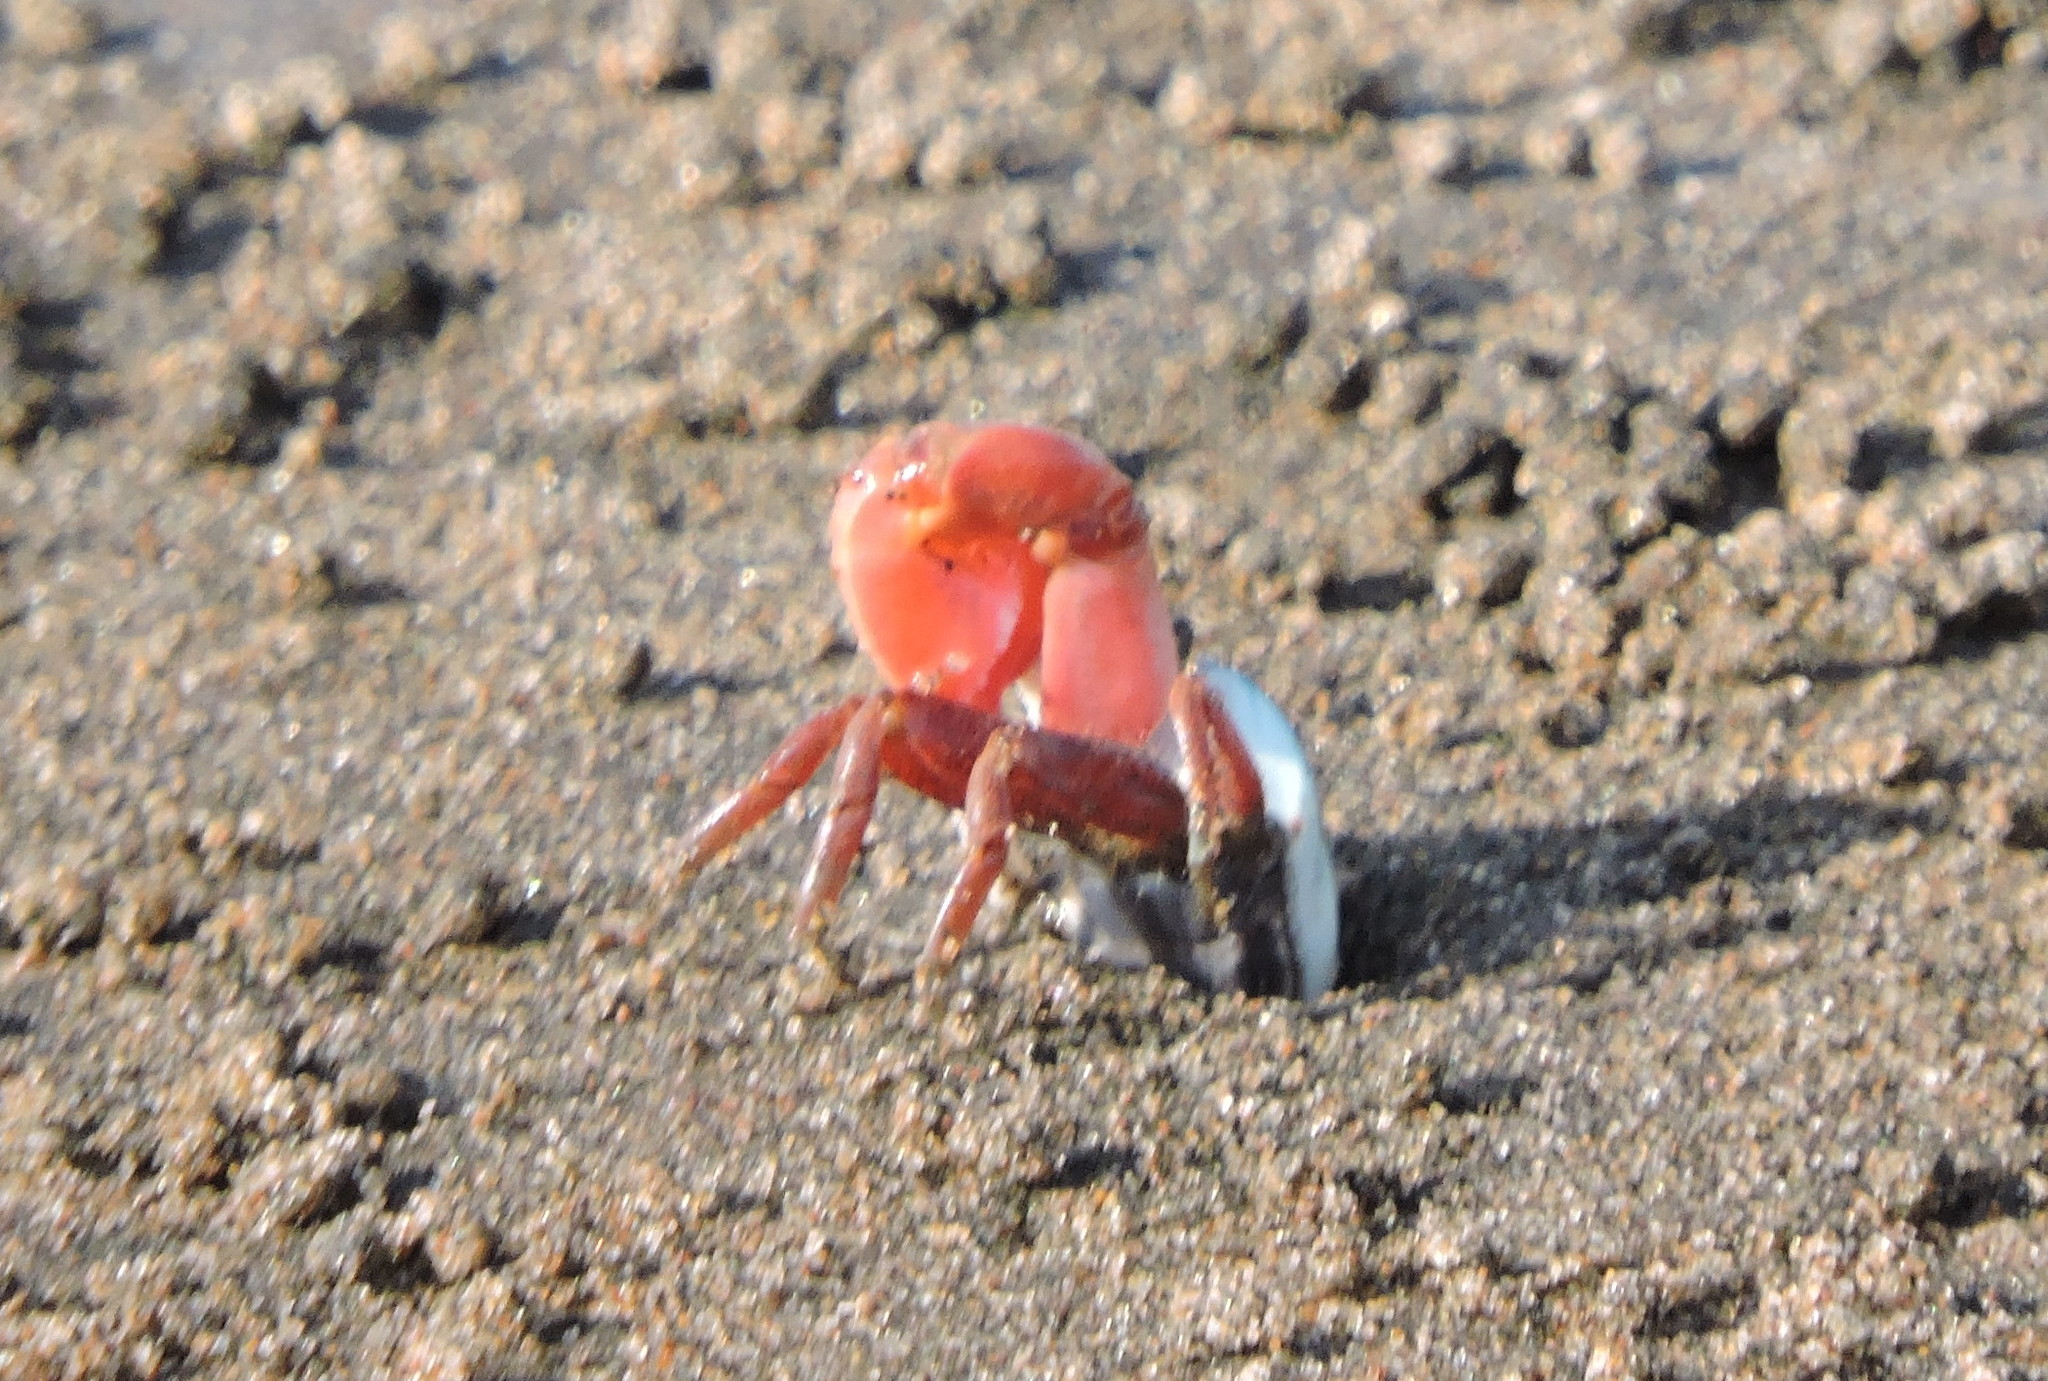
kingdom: Animalia
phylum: Arthropoda
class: Malacostraca
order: Decapoda
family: Ocypodidae
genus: Leptuca
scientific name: Leptuca uruguayensis
